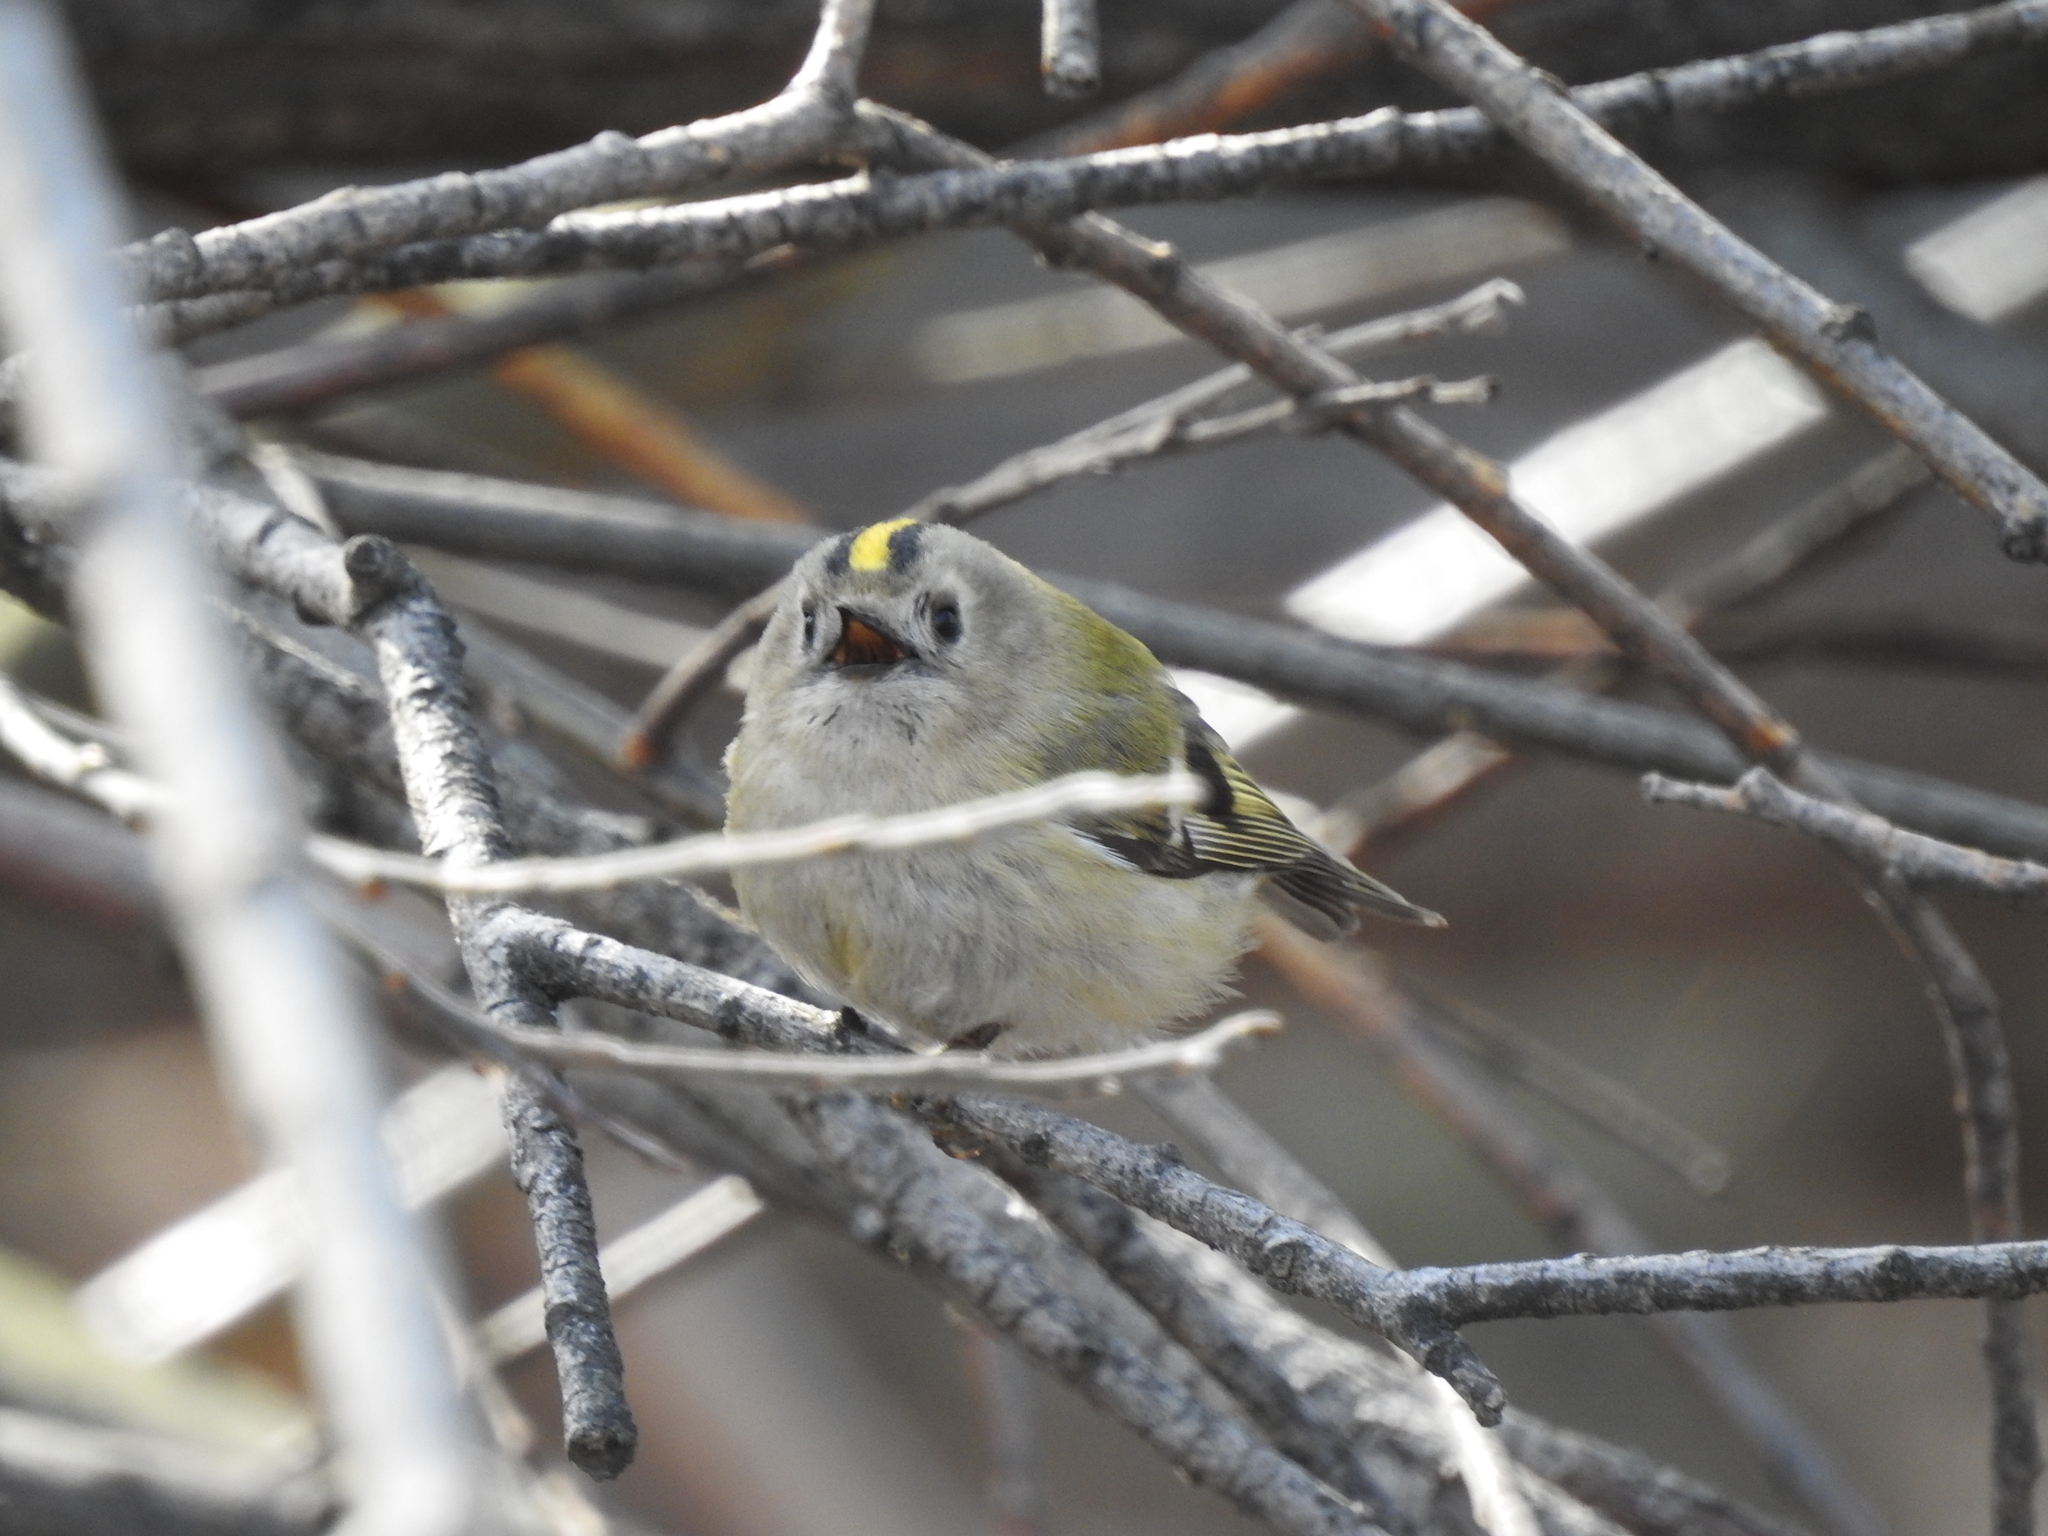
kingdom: Animalia
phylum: Chordata
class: Aves
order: Passeriformes
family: Regulidae
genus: Regulus
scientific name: Regulus regulus
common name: Goldcrest
